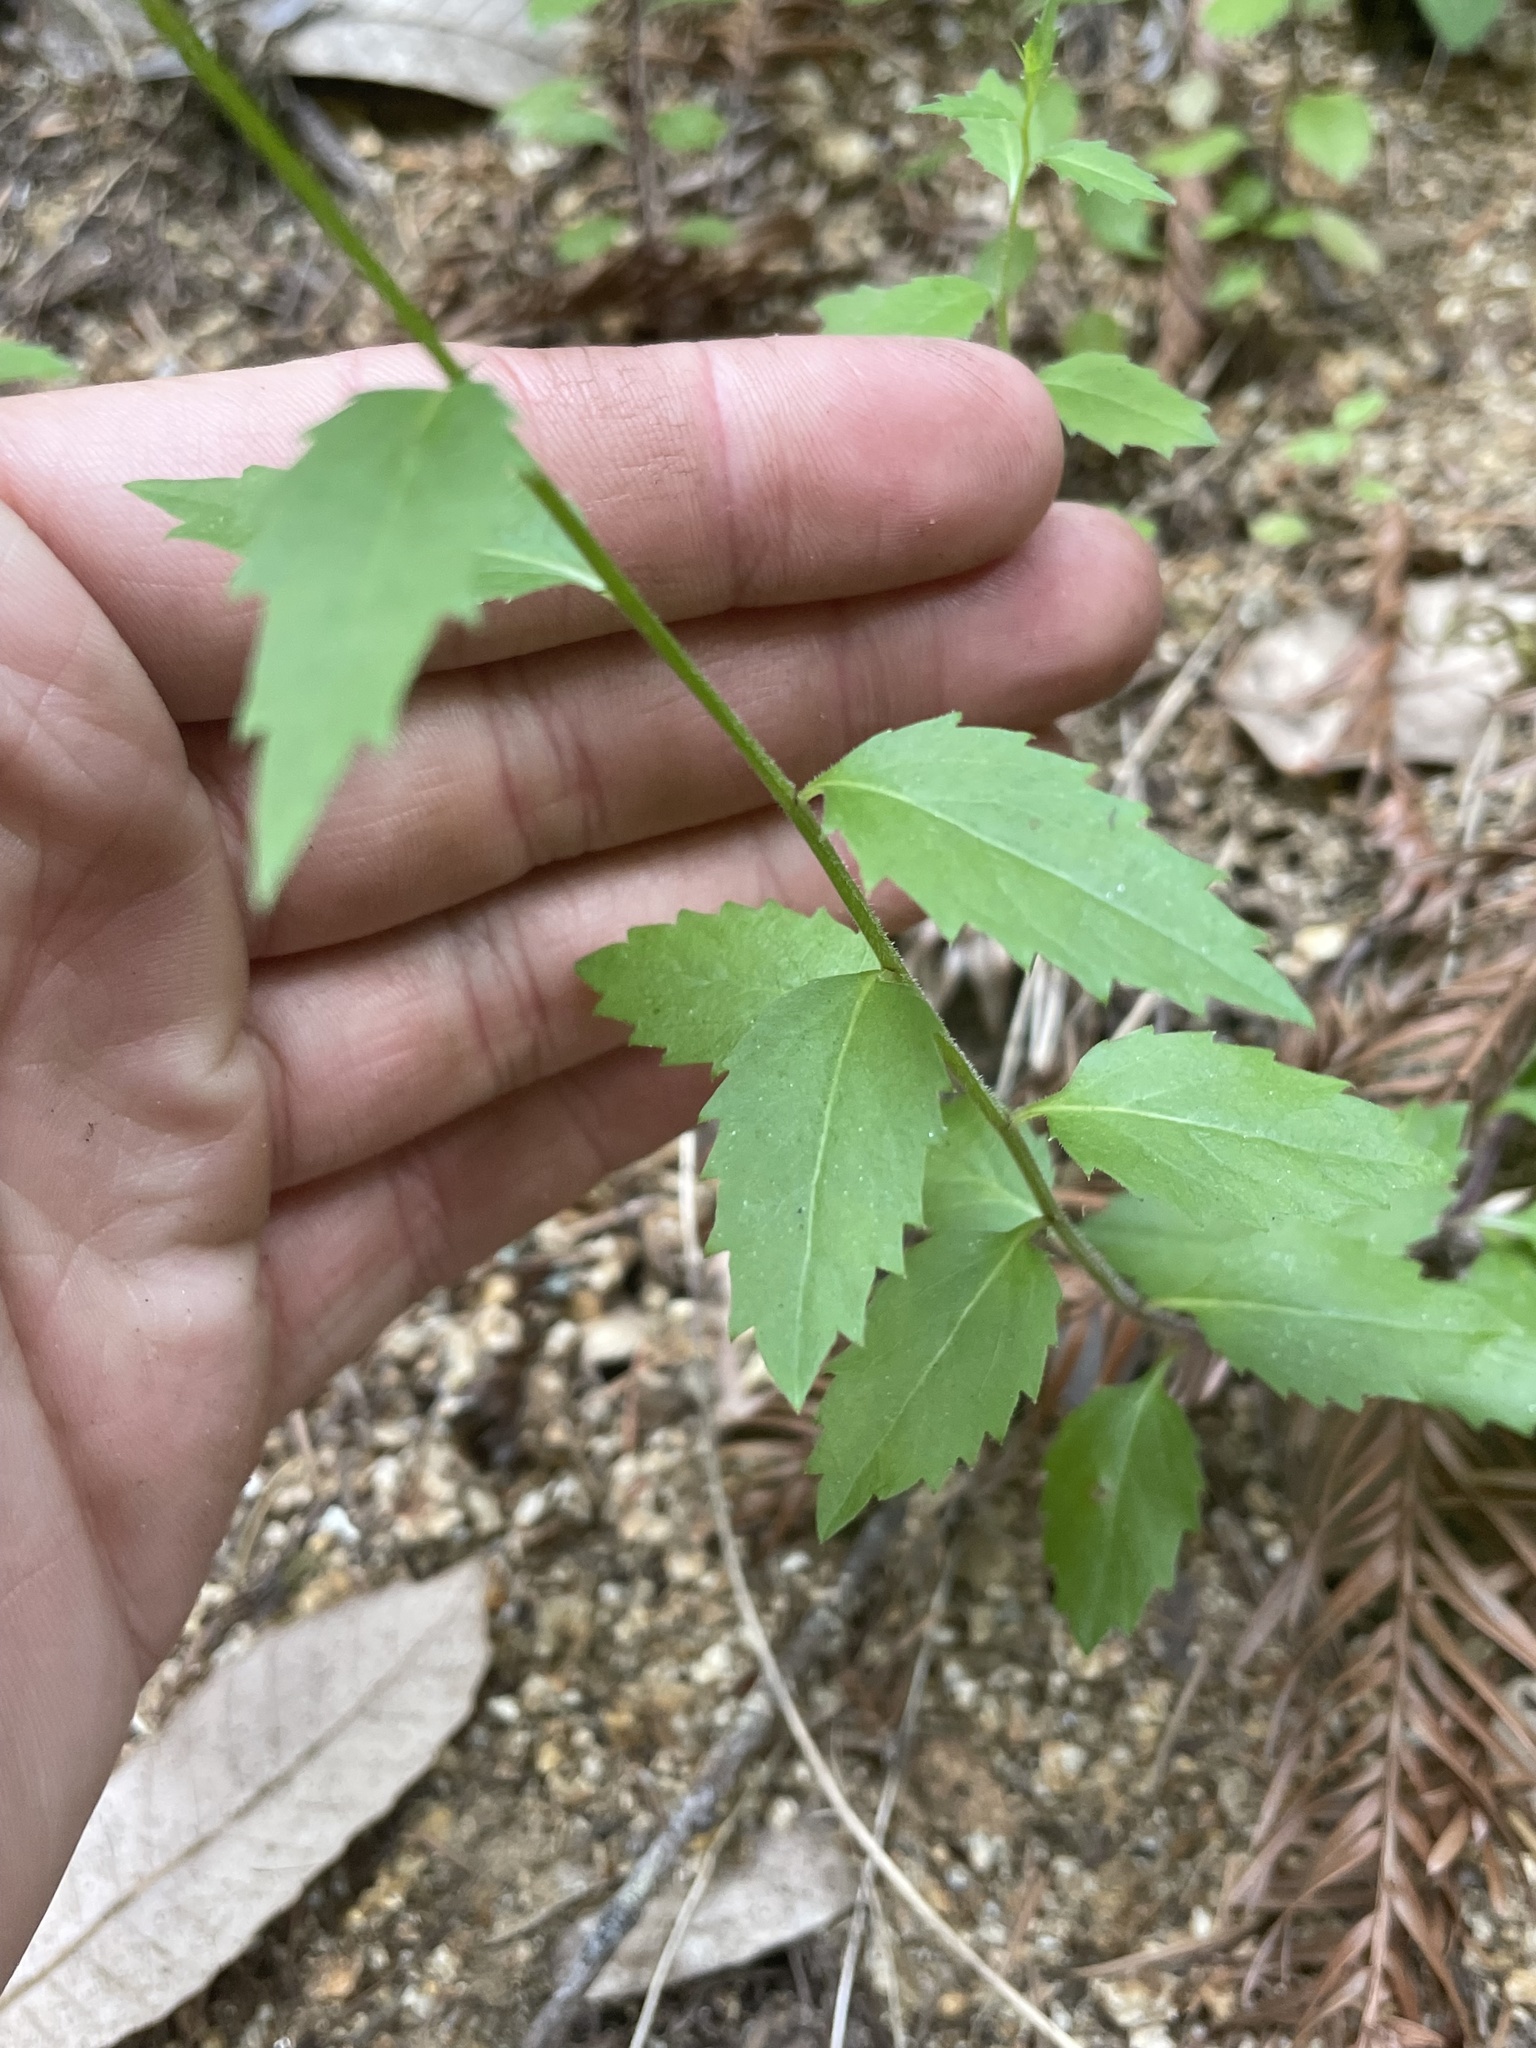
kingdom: Plantae
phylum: Tracheophyta
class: Magnoliopsida
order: Asterales
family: Campanulaceae
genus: Smithiastrum
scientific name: Smithiastrum prenanthoides
